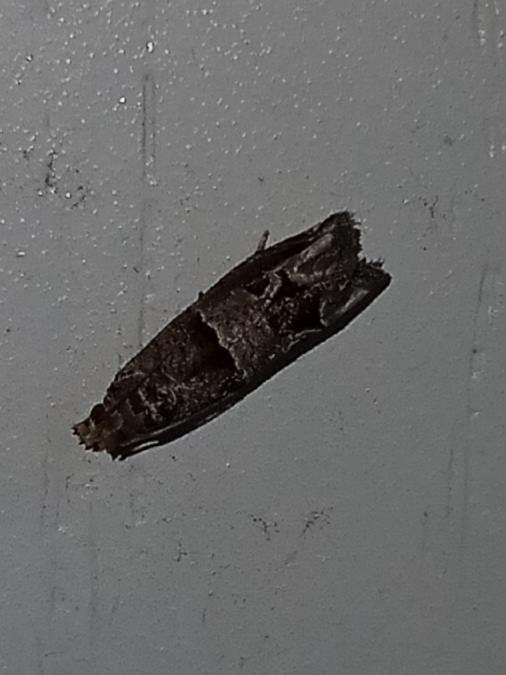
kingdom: Animalia
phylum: Arthropoda
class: Insecta
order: Lepidoptera
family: Tortricidae
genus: Sonia
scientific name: Sonia
